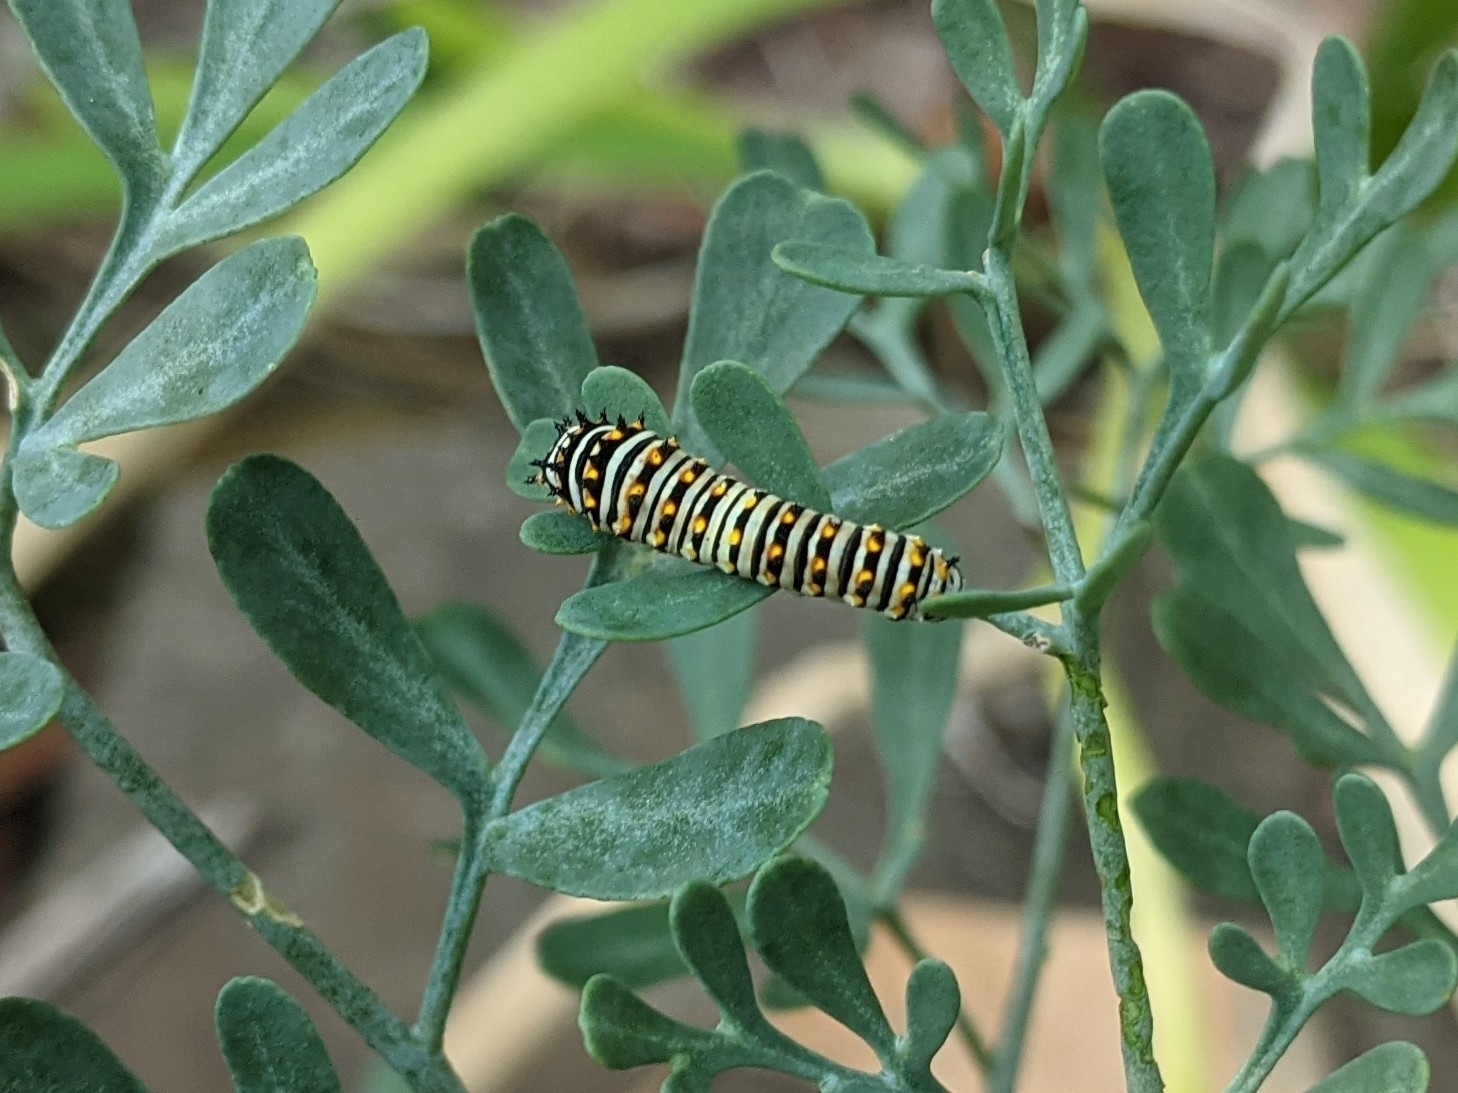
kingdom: Animalia
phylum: Arthropoda
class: Insecta
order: Lepidoptera
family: Papilionidae
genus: Papilio
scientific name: Papilio polyxenes
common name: Black swallowtail
